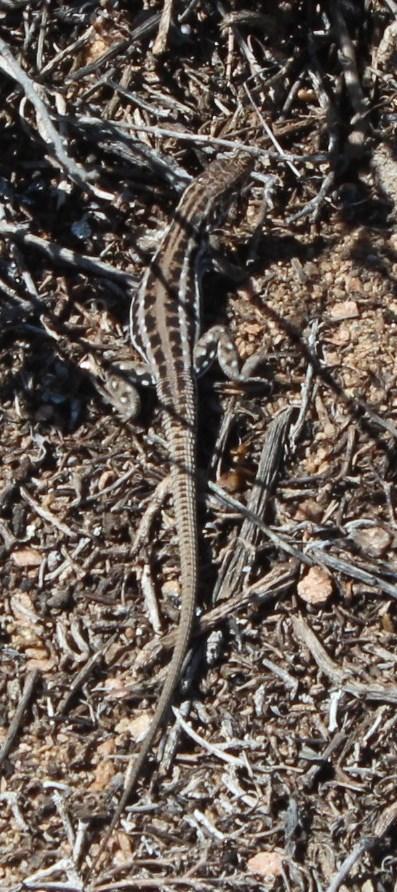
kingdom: Animalia
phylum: Chordata
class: Squamata
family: Lacertidae
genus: Meroles
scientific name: Meroles knoxii
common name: Knox's desert lizard
